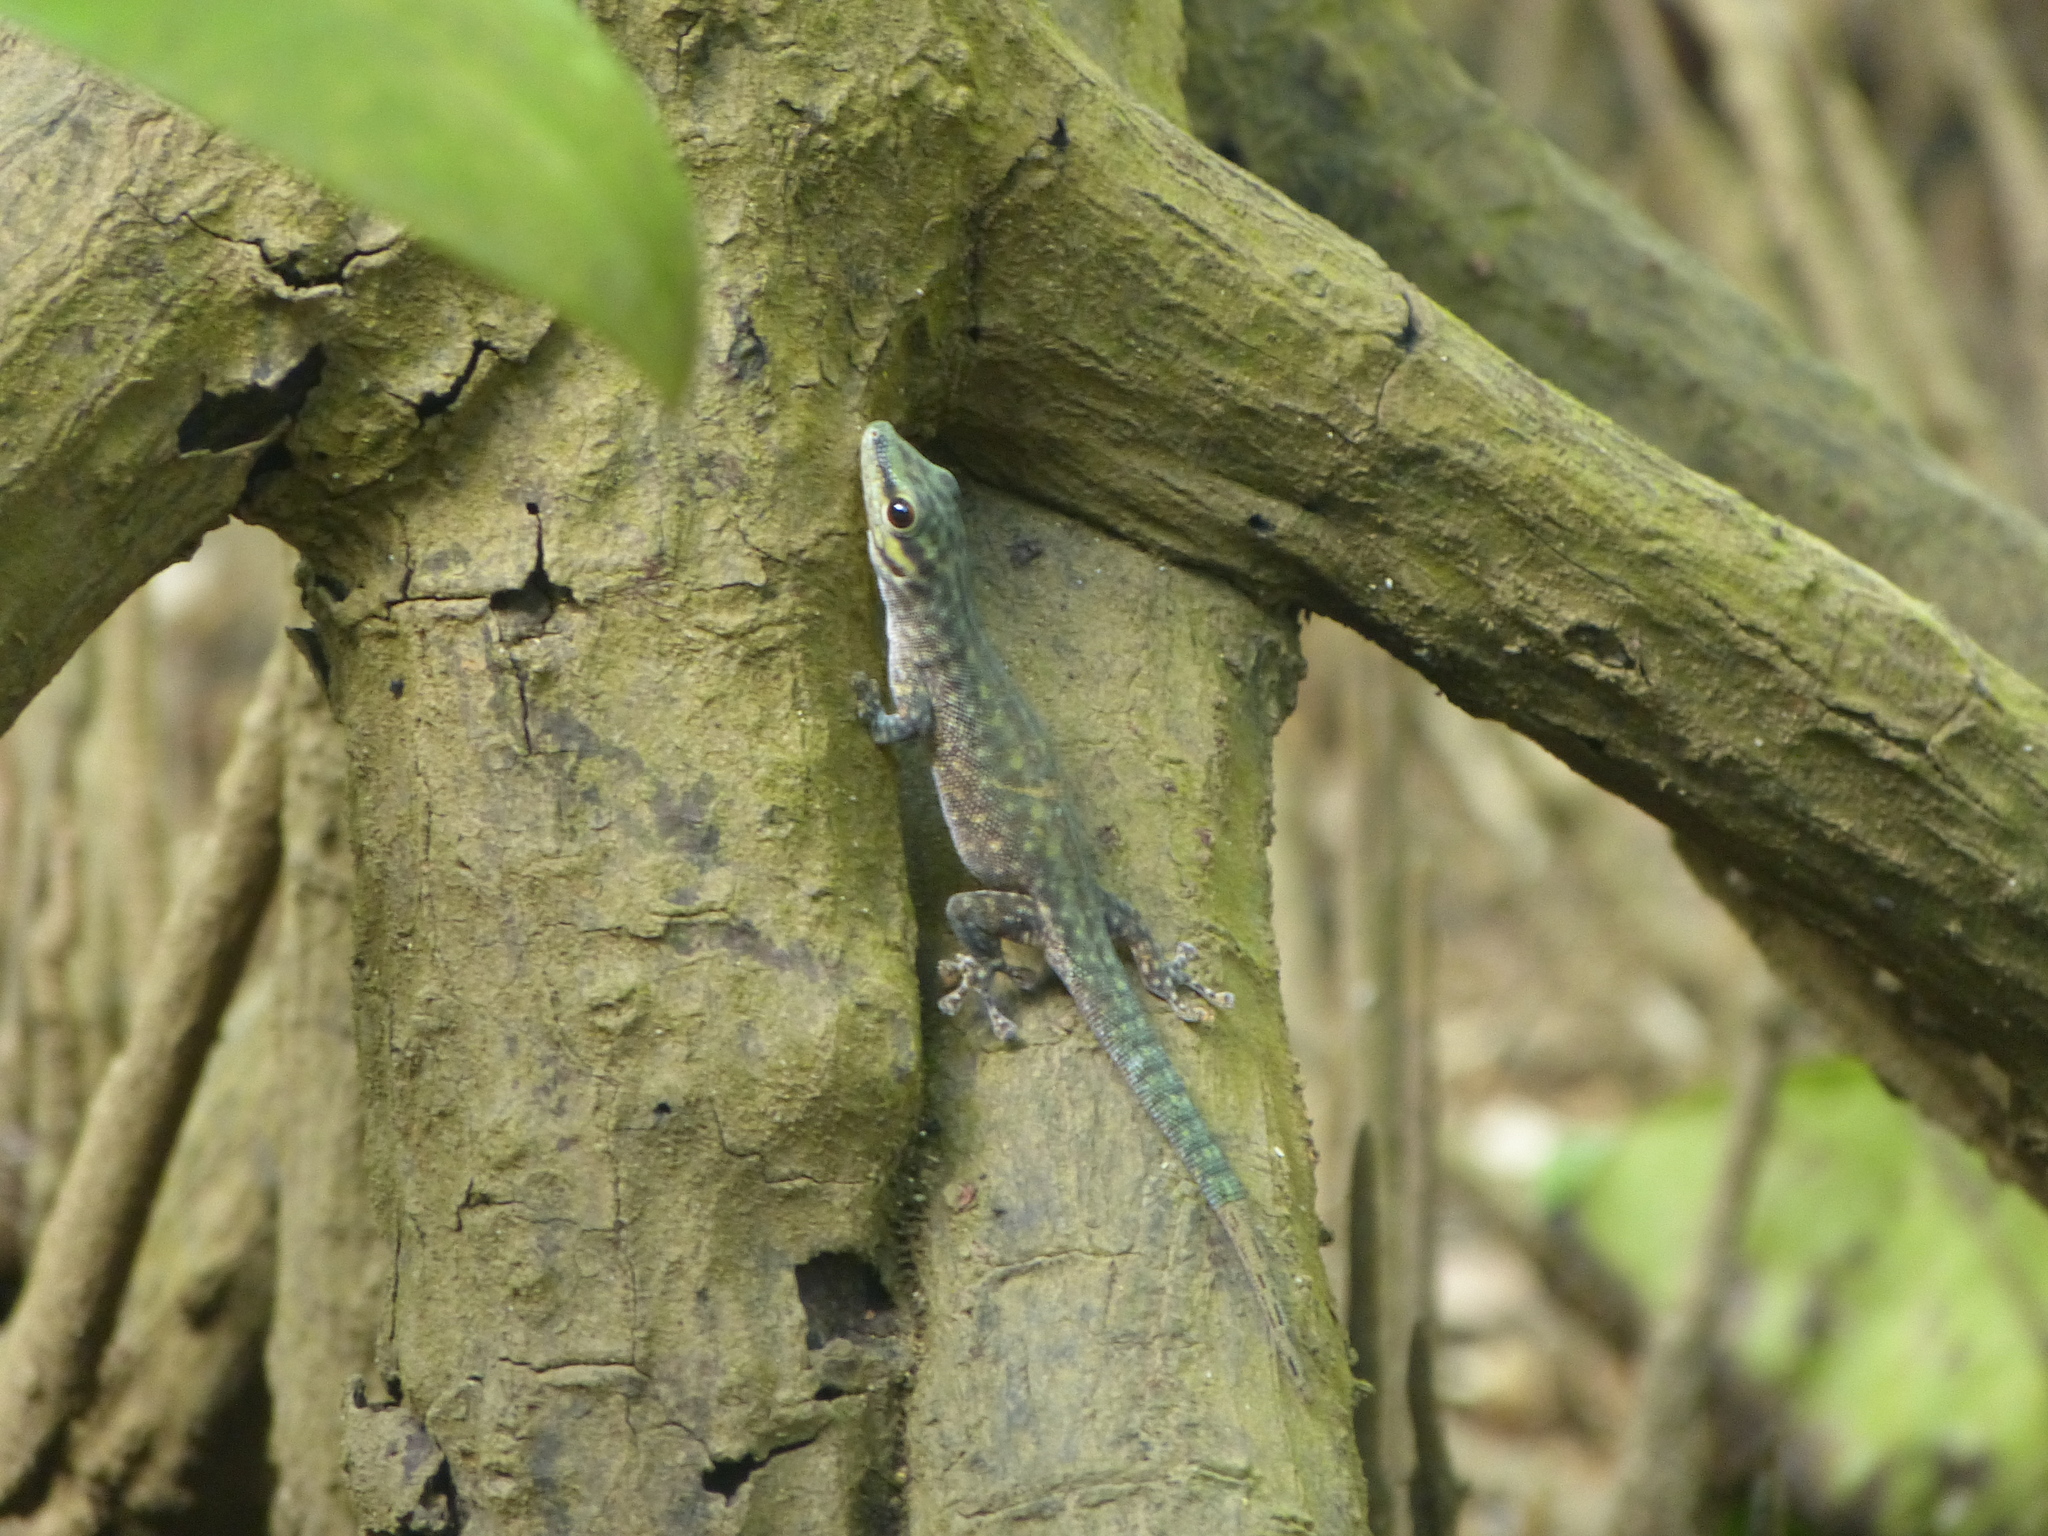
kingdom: Animalia
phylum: Chordata
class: Squamata
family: Gekkonidae
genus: Phelsuma
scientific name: Phelsuma abbotti
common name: Aldabra day gecko
